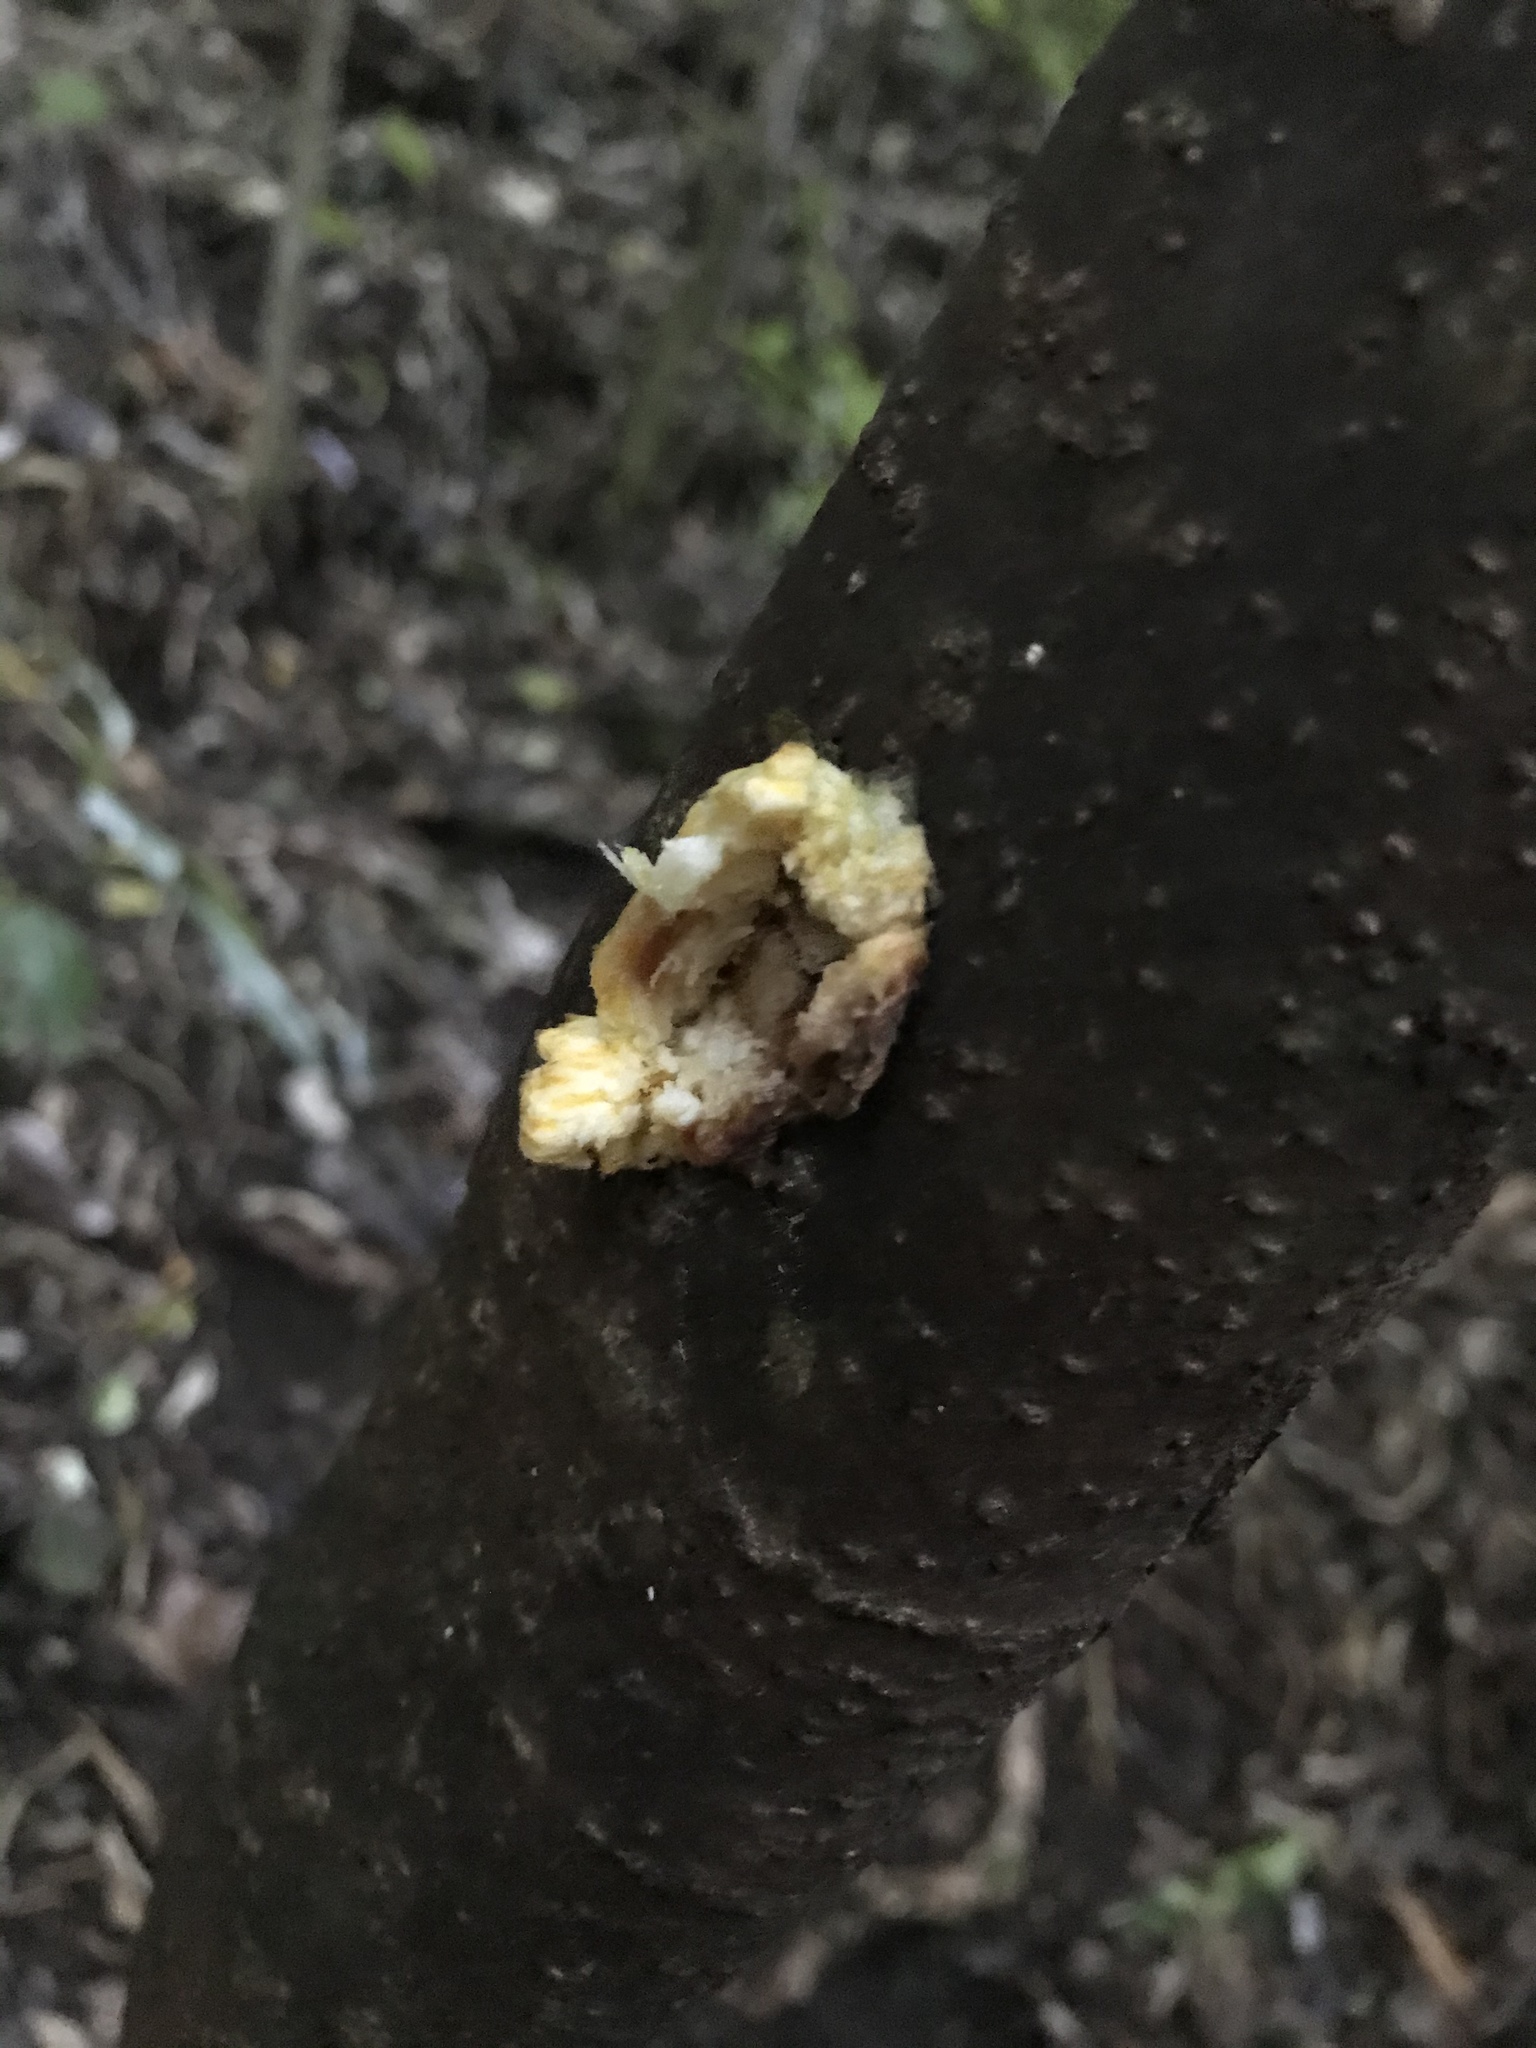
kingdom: Plantae
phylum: Tracheophyta
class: Magnoliopsida
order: Gentianales
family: Rubiaceae
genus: Coprosma
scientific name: Coprosma autumnalis
